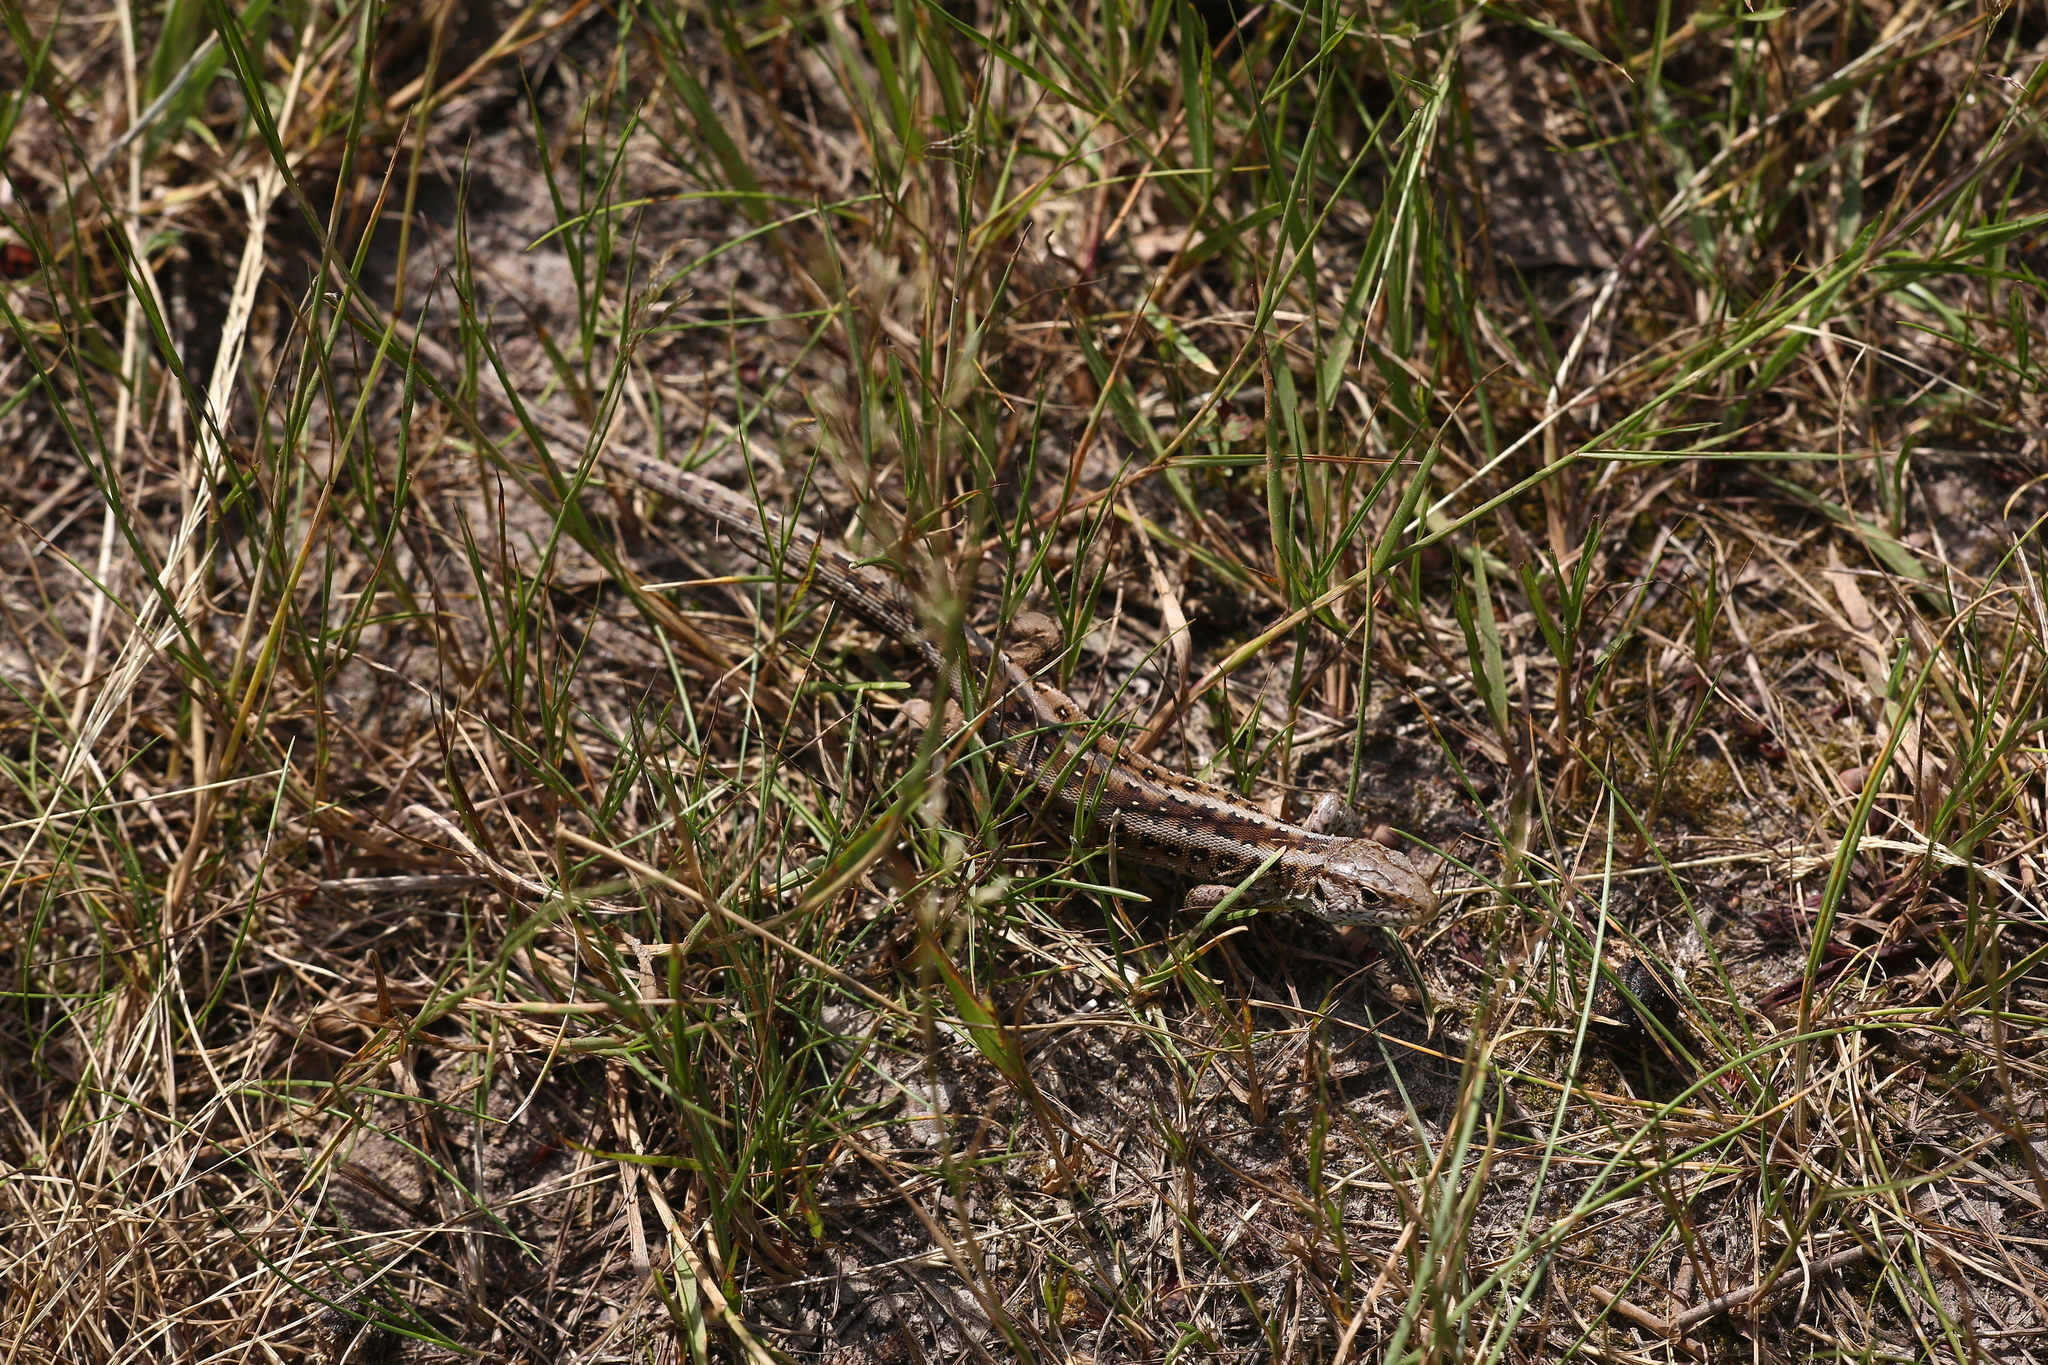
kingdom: Animalia
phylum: Chordata
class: Squamata
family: Lacertidae
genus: Lacerta
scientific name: Lacerta agilis
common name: Sand lizard
